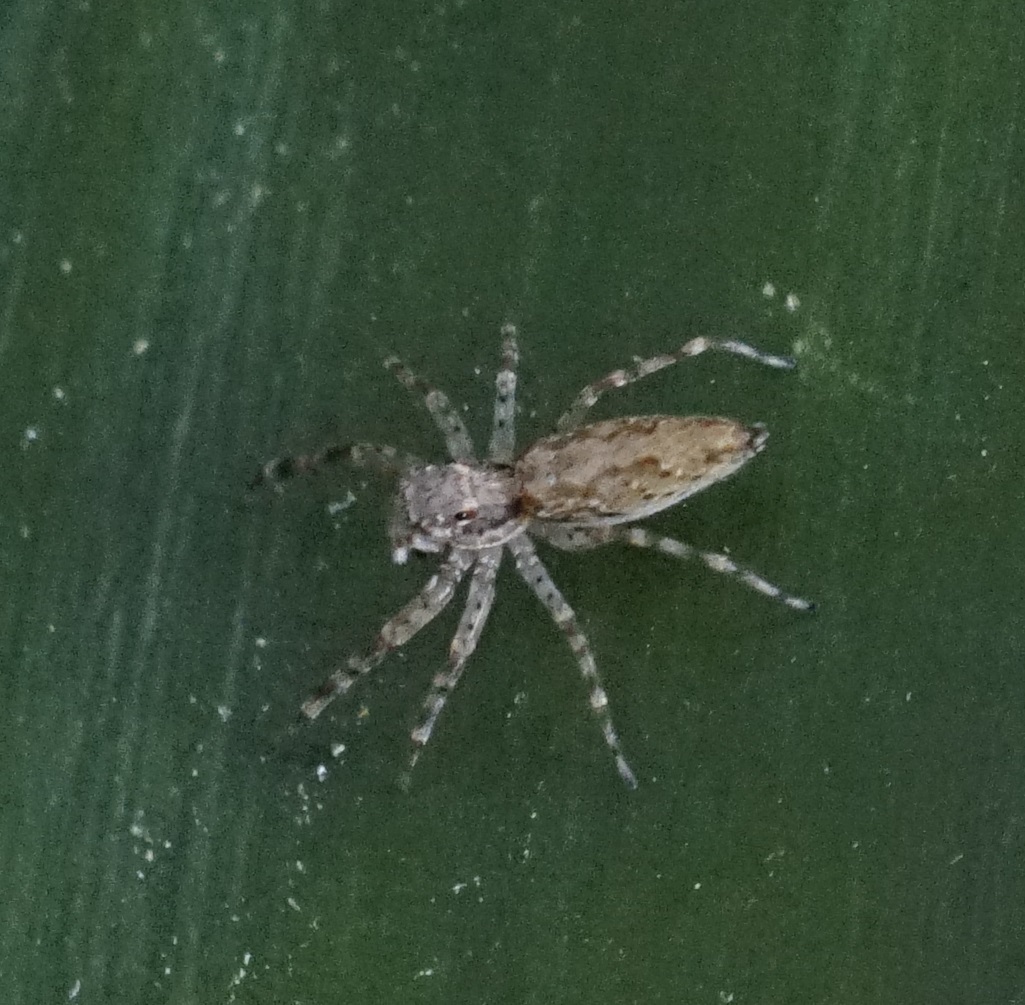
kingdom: Animalia
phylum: Arthropoda
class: Arachnida
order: Araneae
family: Salticidae
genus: Helpis
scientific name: Helpis minitabunda
